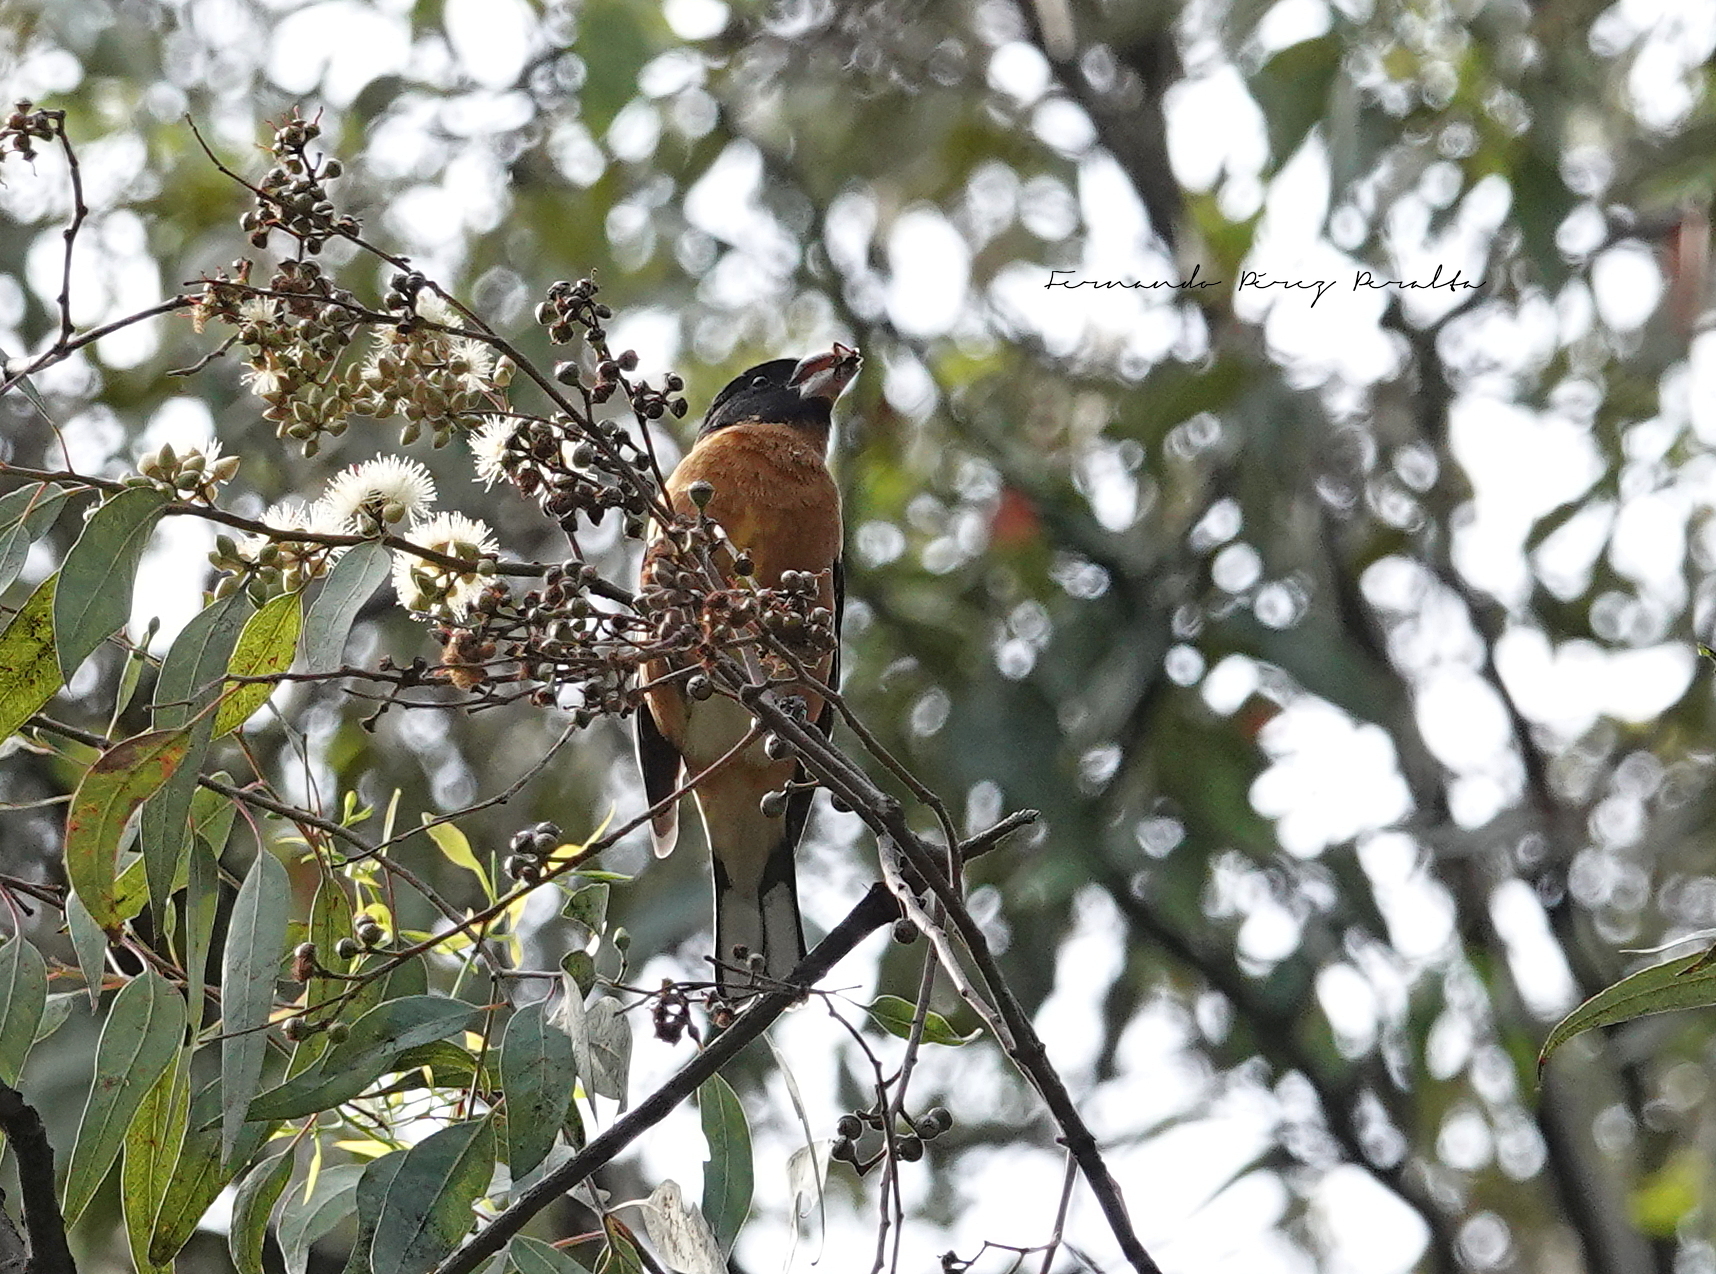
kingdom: Animalia
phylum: Chordata
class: Aves
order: Passeriformes
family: Cardinalidae
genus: Pheucticus
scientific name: Pheucticus melanocephalus
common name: Black-headed grosbeak
